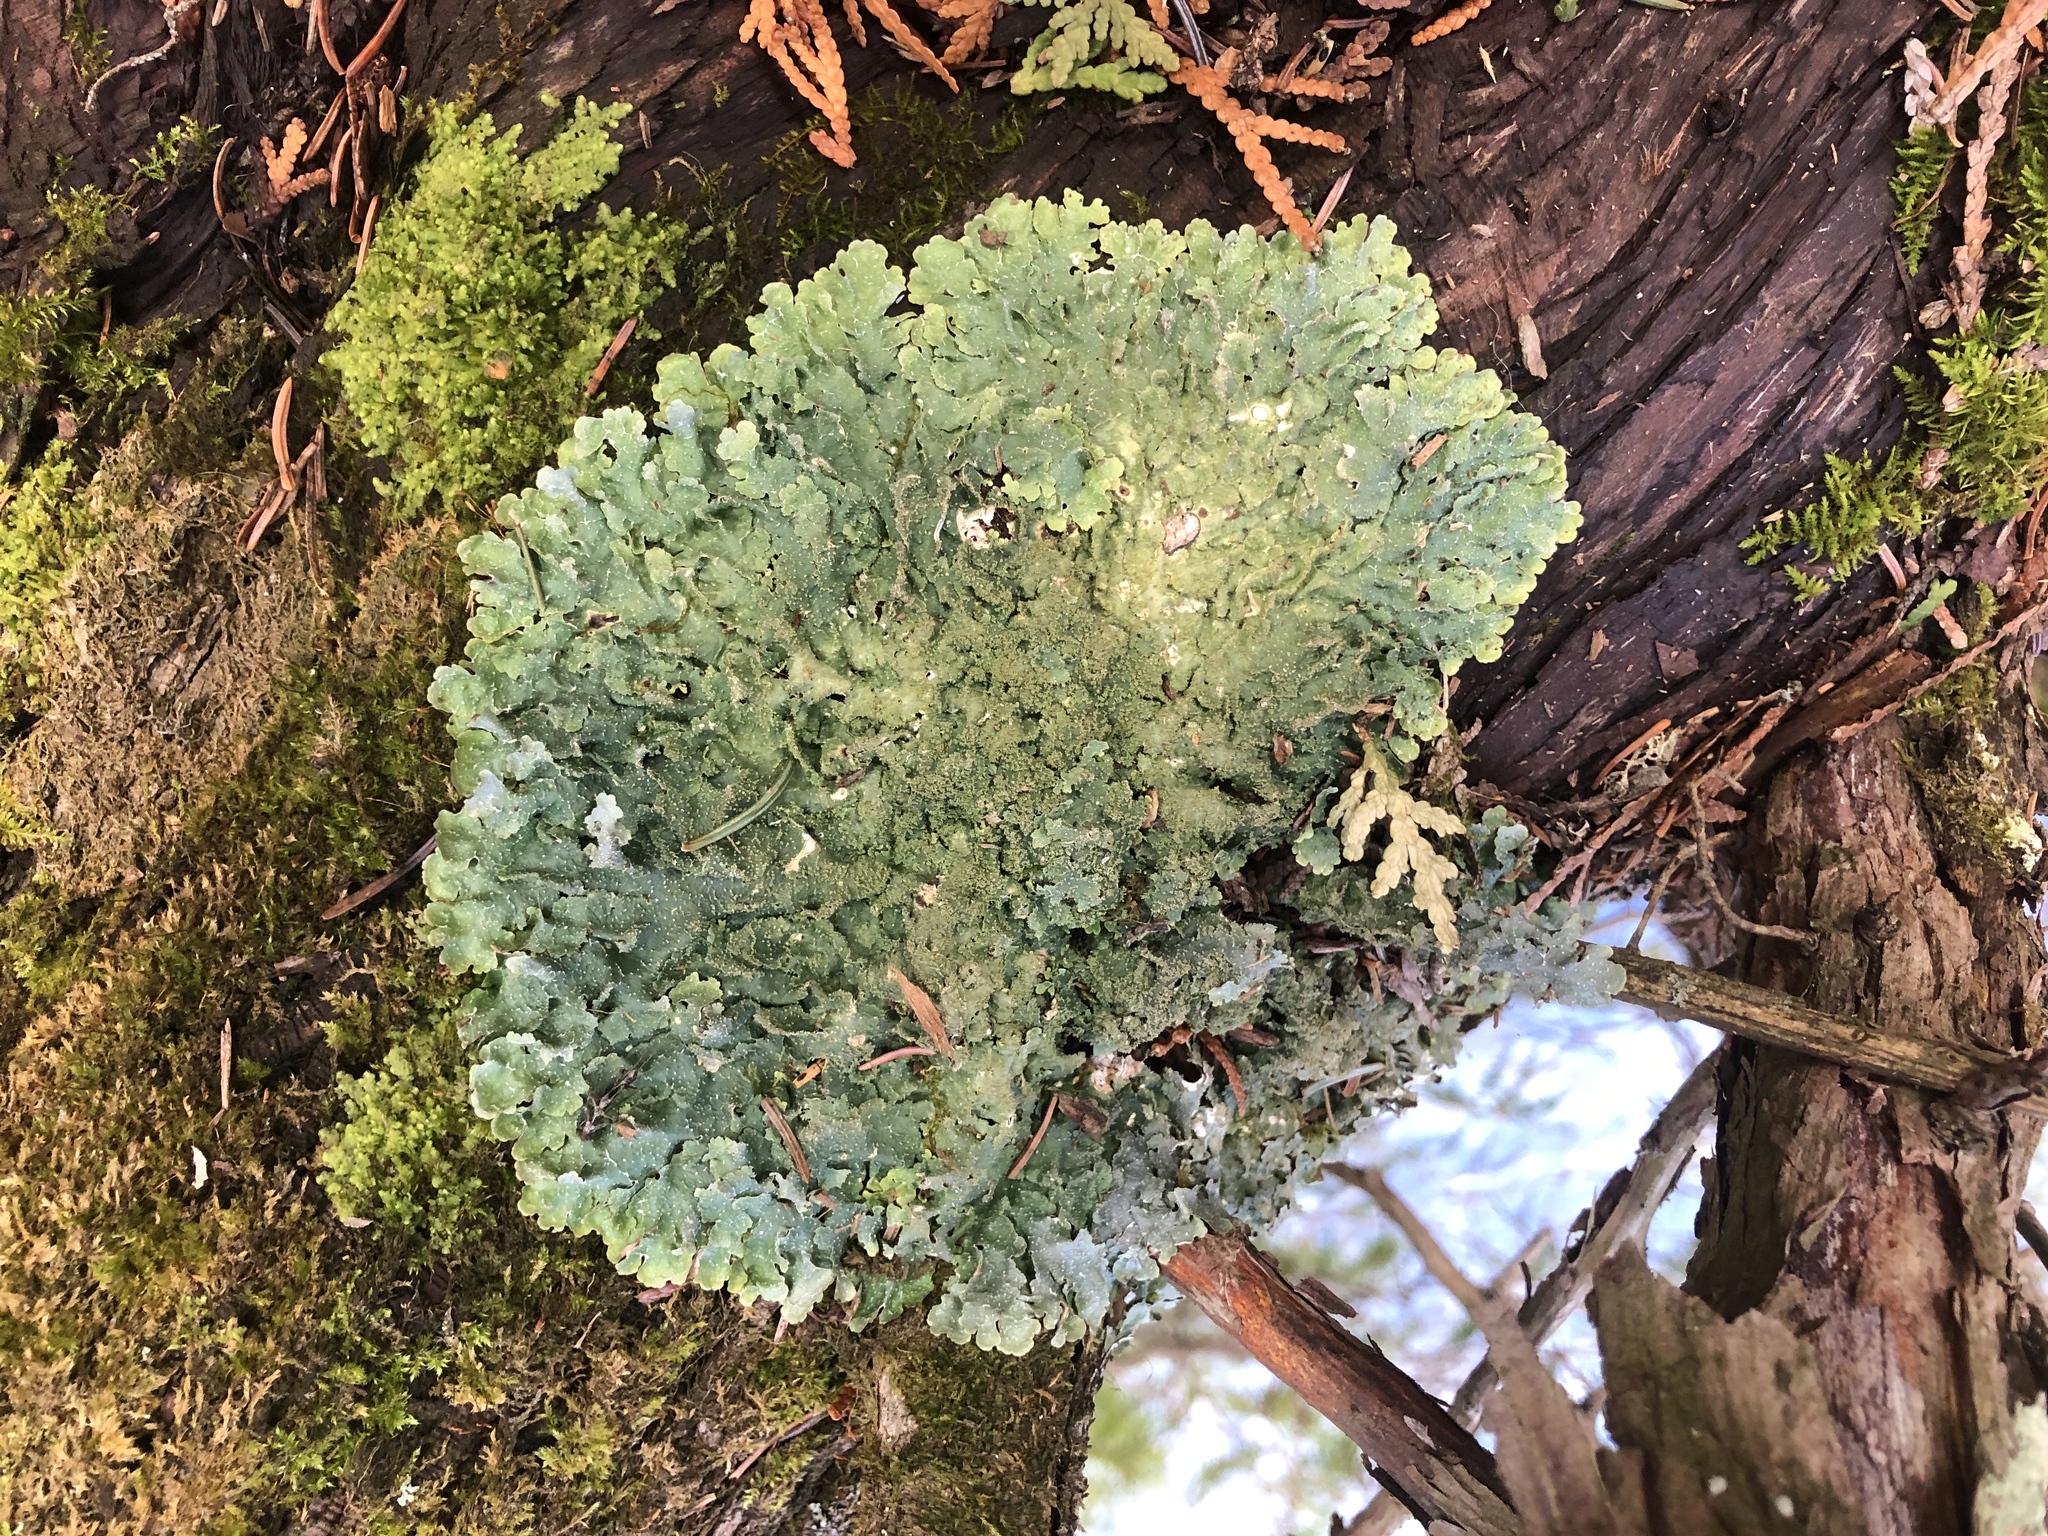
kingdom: Fungi
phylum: Ascomycota
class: Lecanoromycetes
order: Lecanorales
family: Parmeliaceae
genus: Punctelia
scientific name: Punctelia rudecta
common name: Rough speckled shield lichen
